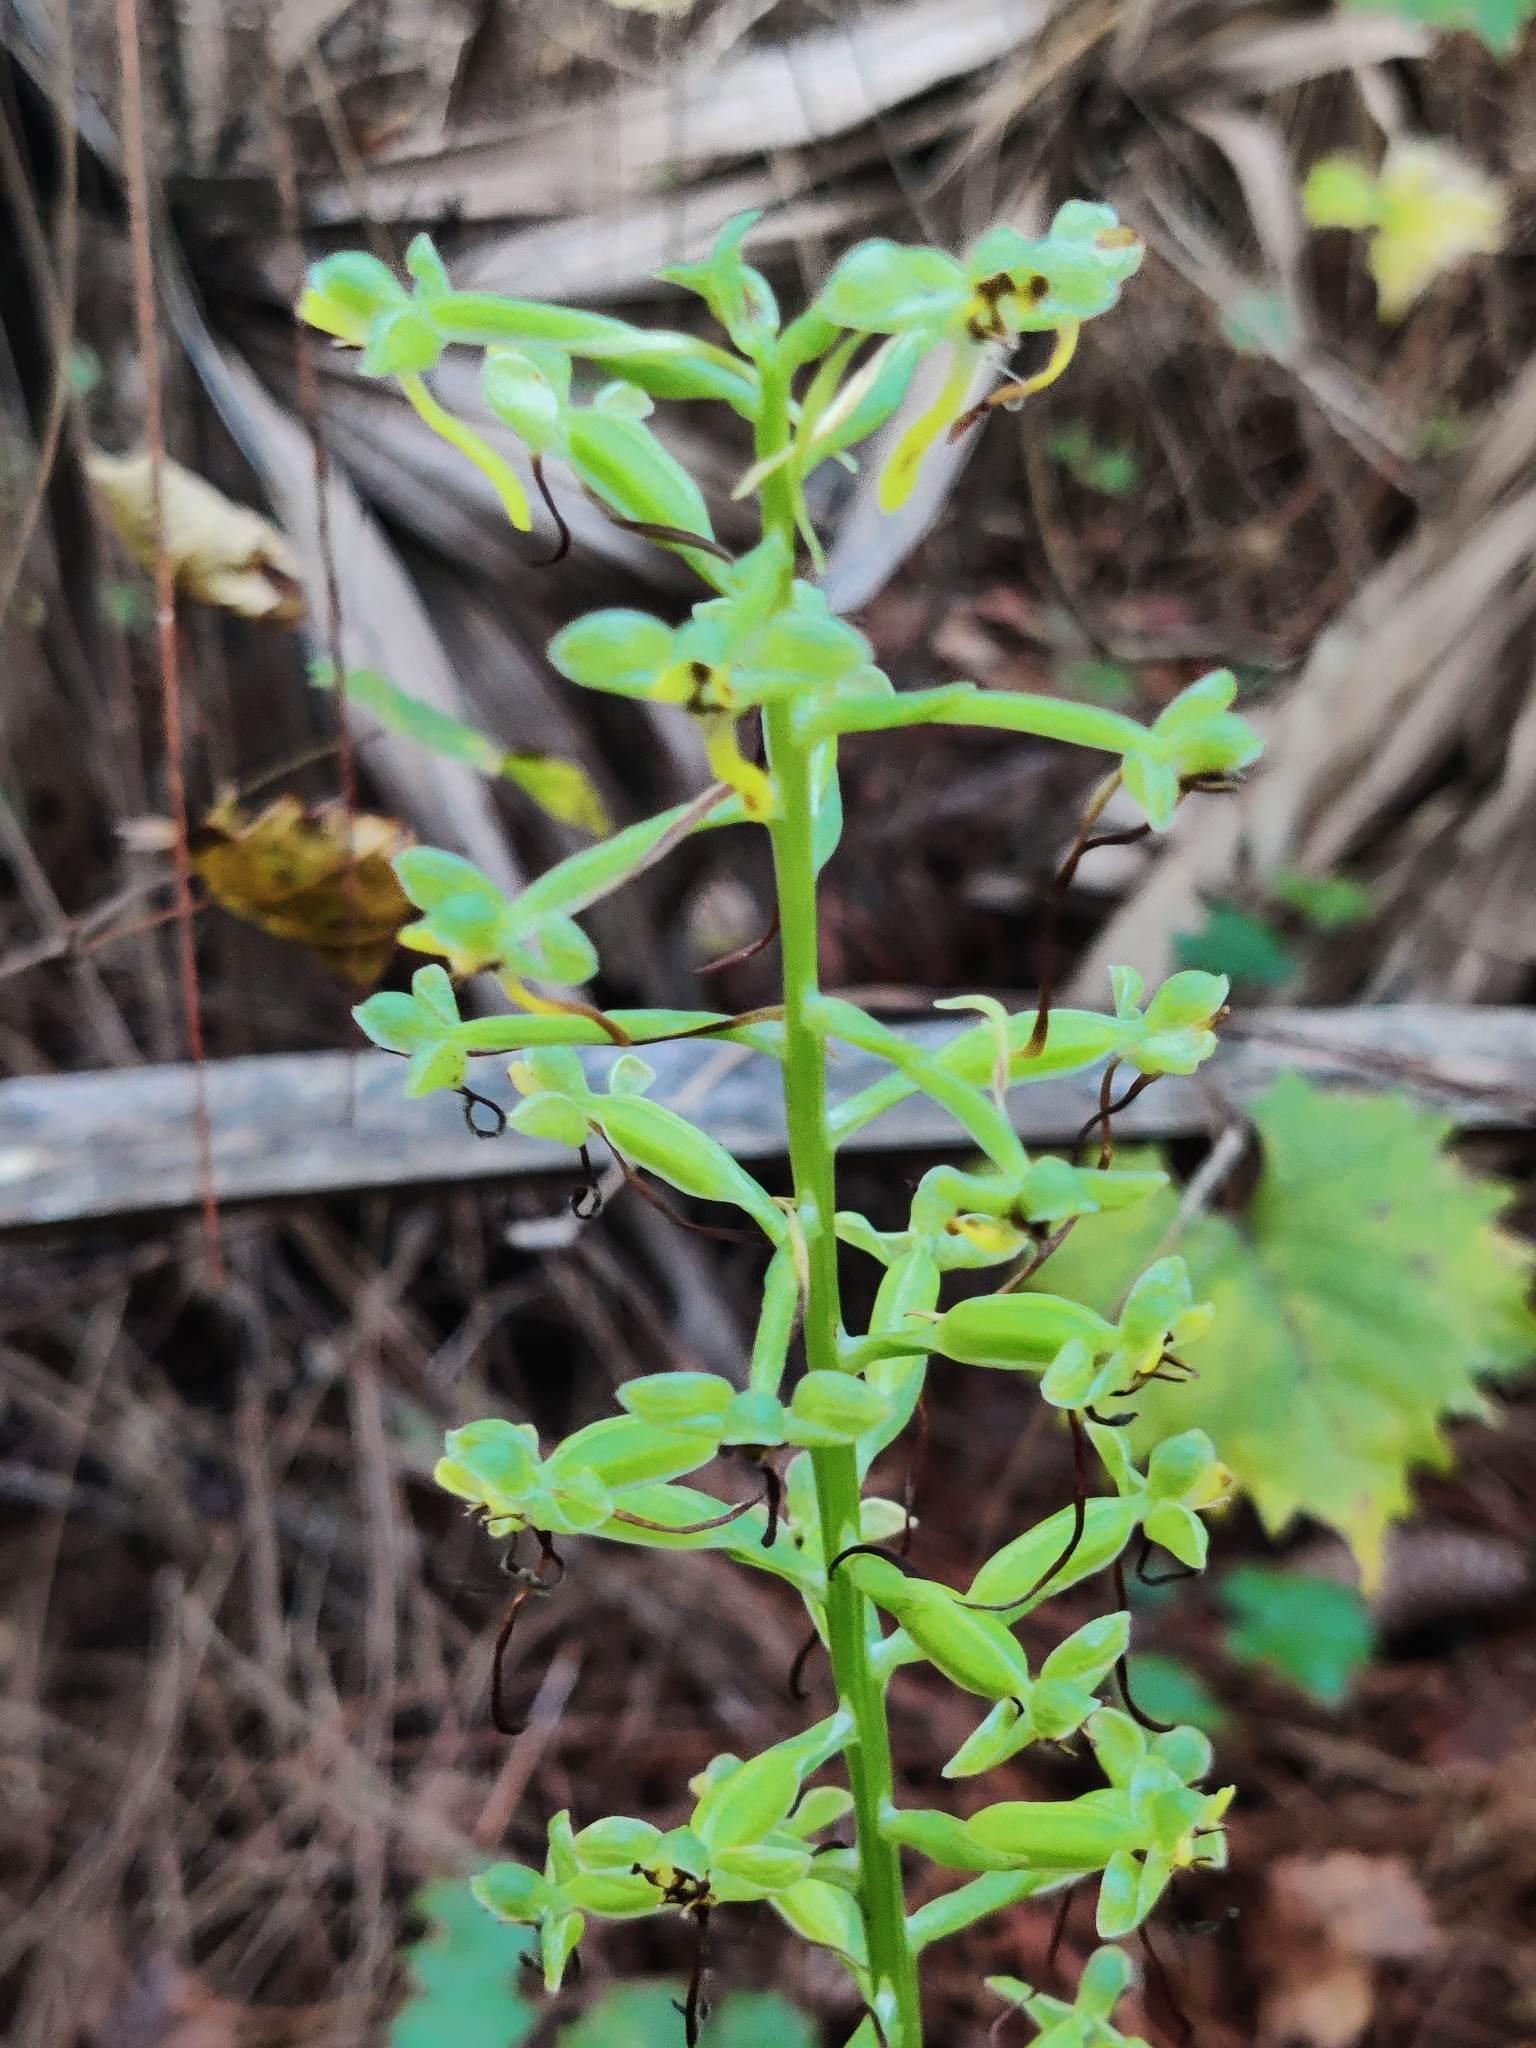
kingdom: Plantae
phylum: Tracheophyta
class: Liliopsida
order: Asparagales
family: Orchidaceae
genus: Habenaria
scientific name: Habenaria floribunda
